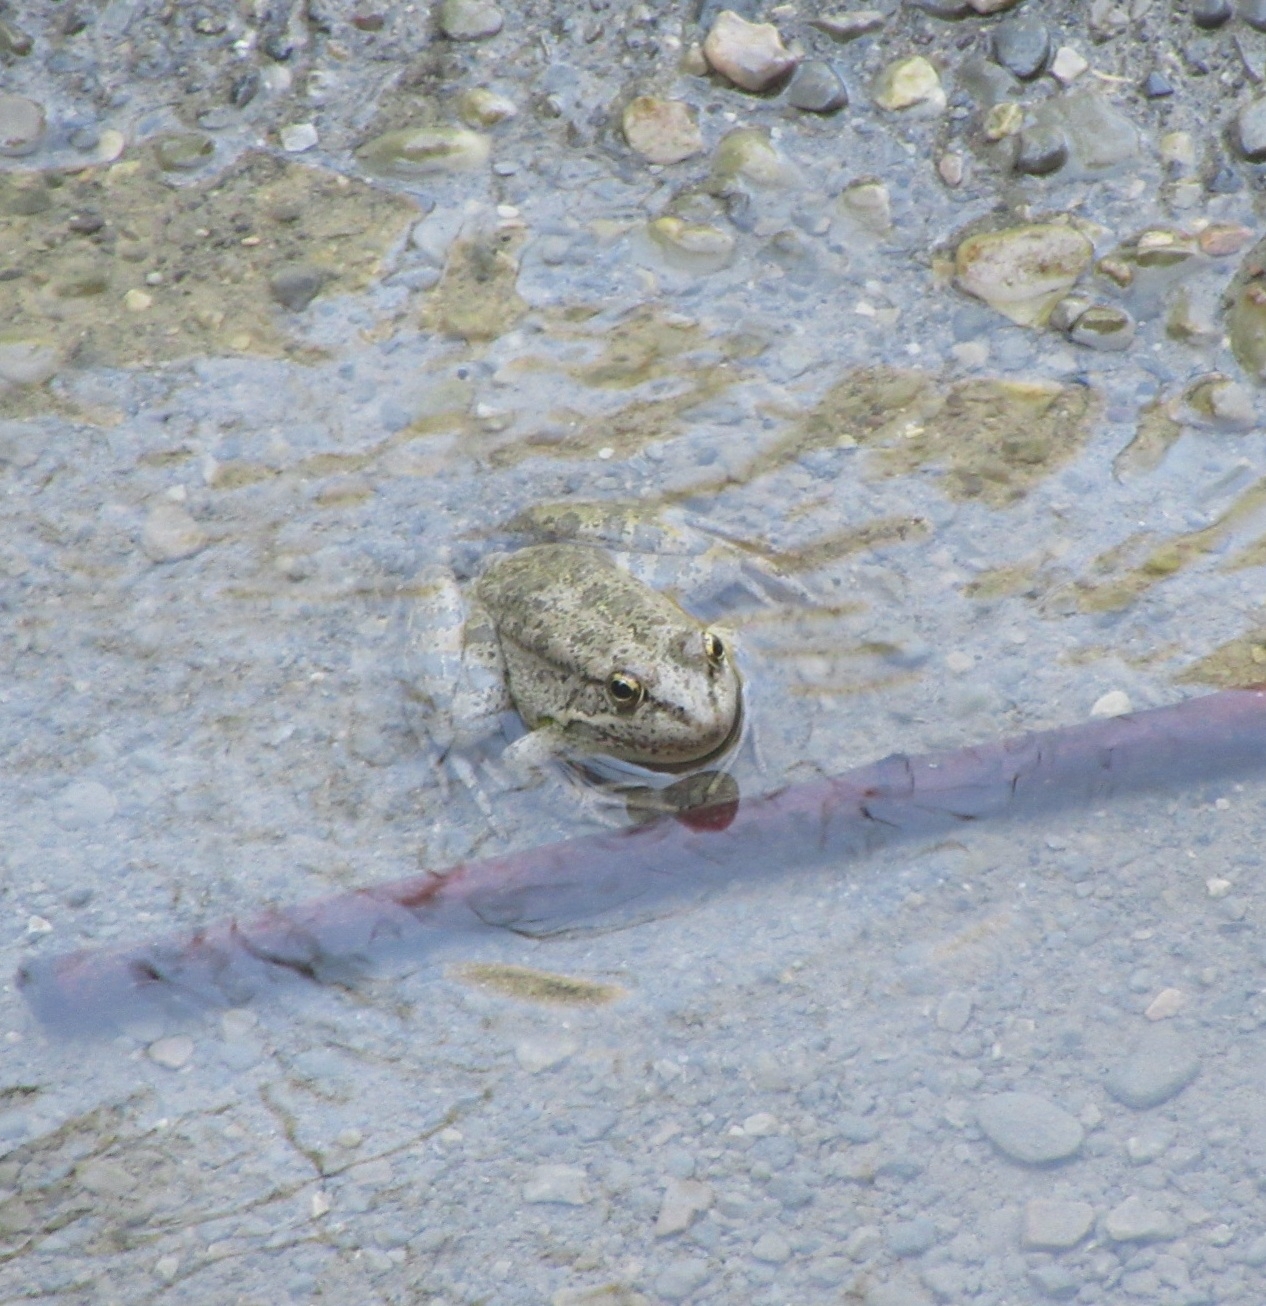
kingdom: Animalia
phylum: Chordata
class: Amphibia
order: Anura
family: Ranidae
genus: Pelophylax
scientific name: Pelophylax cretensis
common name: Cretan frog
